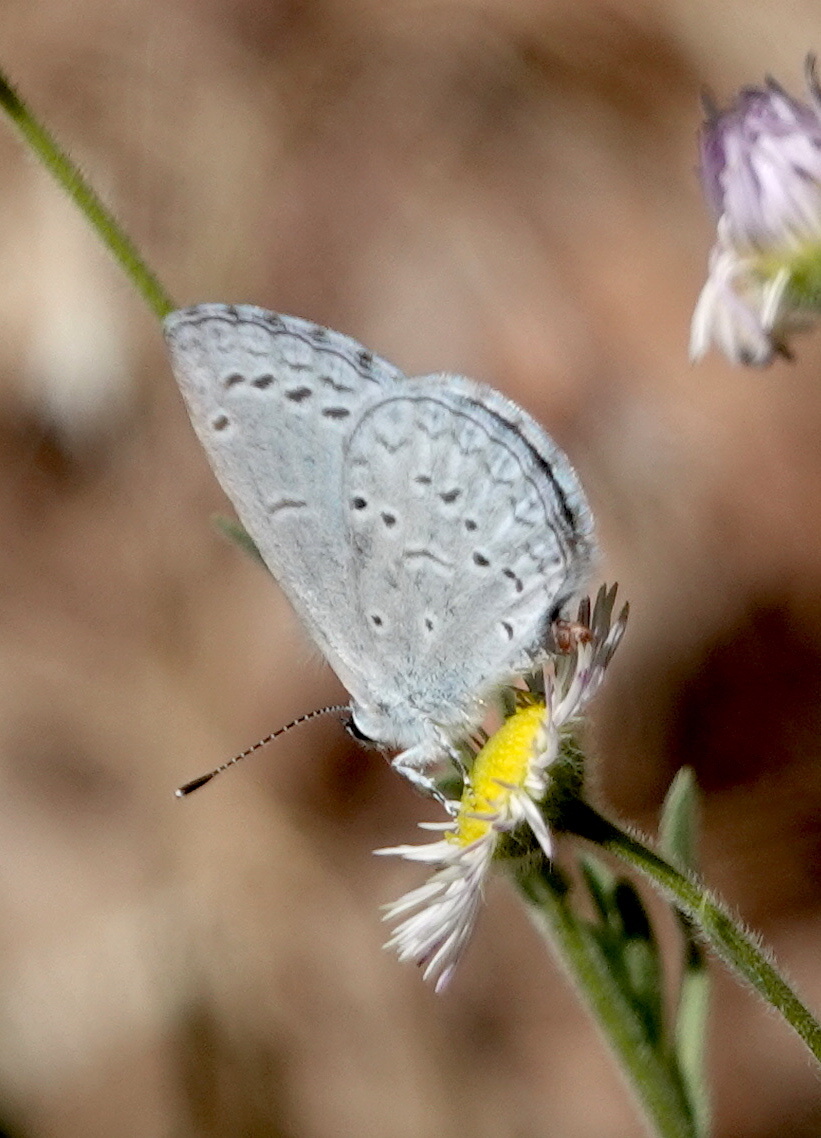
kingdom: Animalia
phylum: Arthropoda
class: Insecta
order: Lepidoptera
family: Lycaenidae
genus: Celastrina
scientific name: Celastrina ladon
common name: Spring azure
